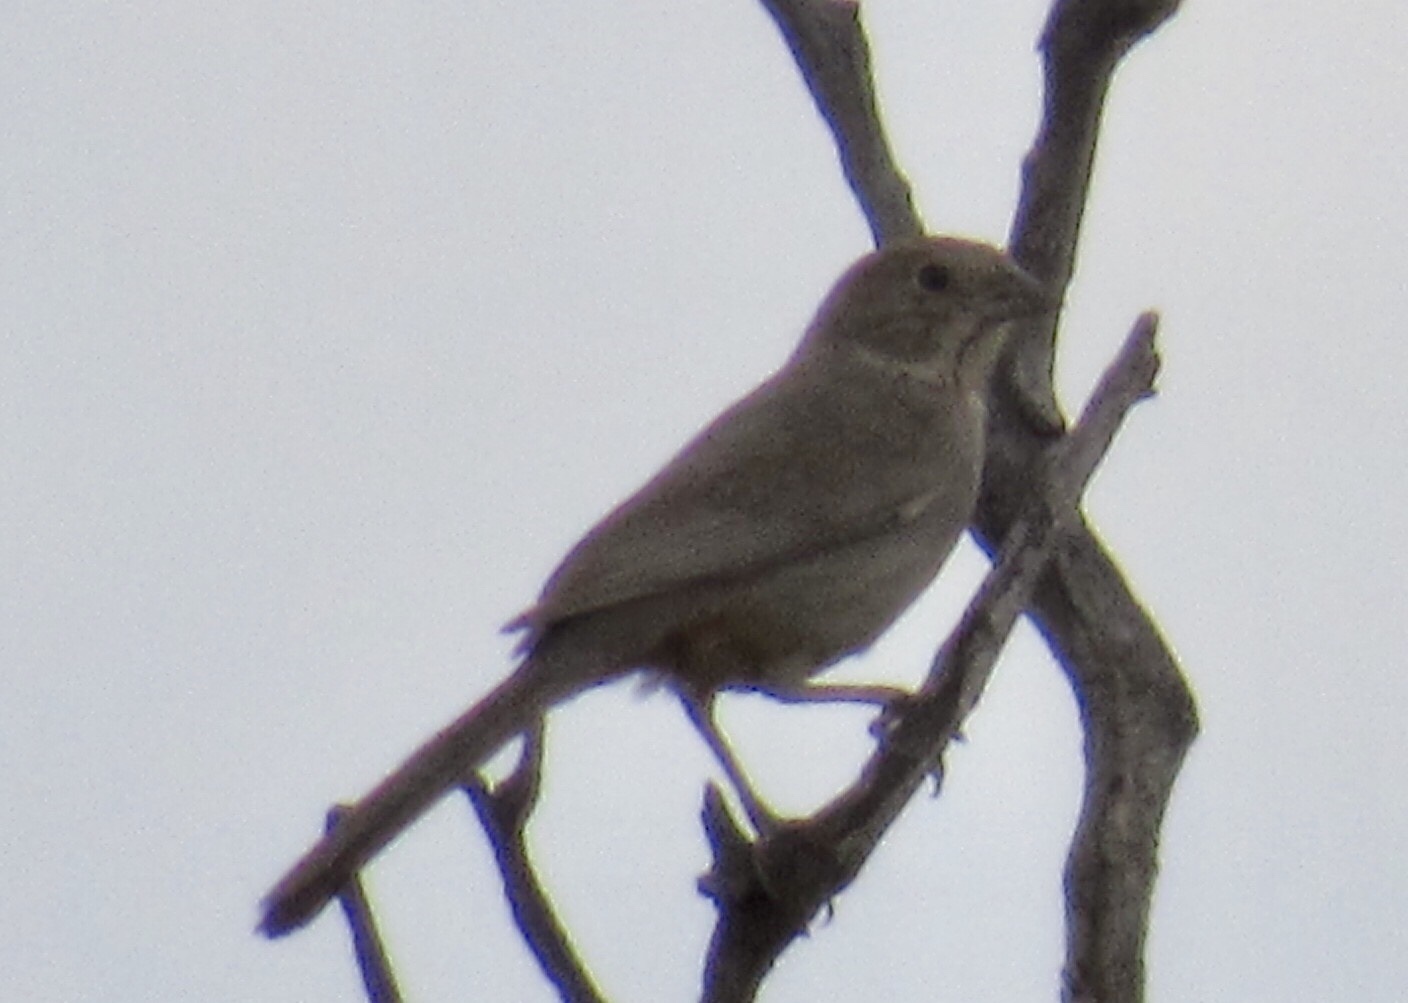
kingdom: Animalia
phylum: Chordata
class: Aves
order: Passeriformes
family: Passerellidae
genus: Melozone
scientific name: Melozone fusca
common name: Canyon towhee
